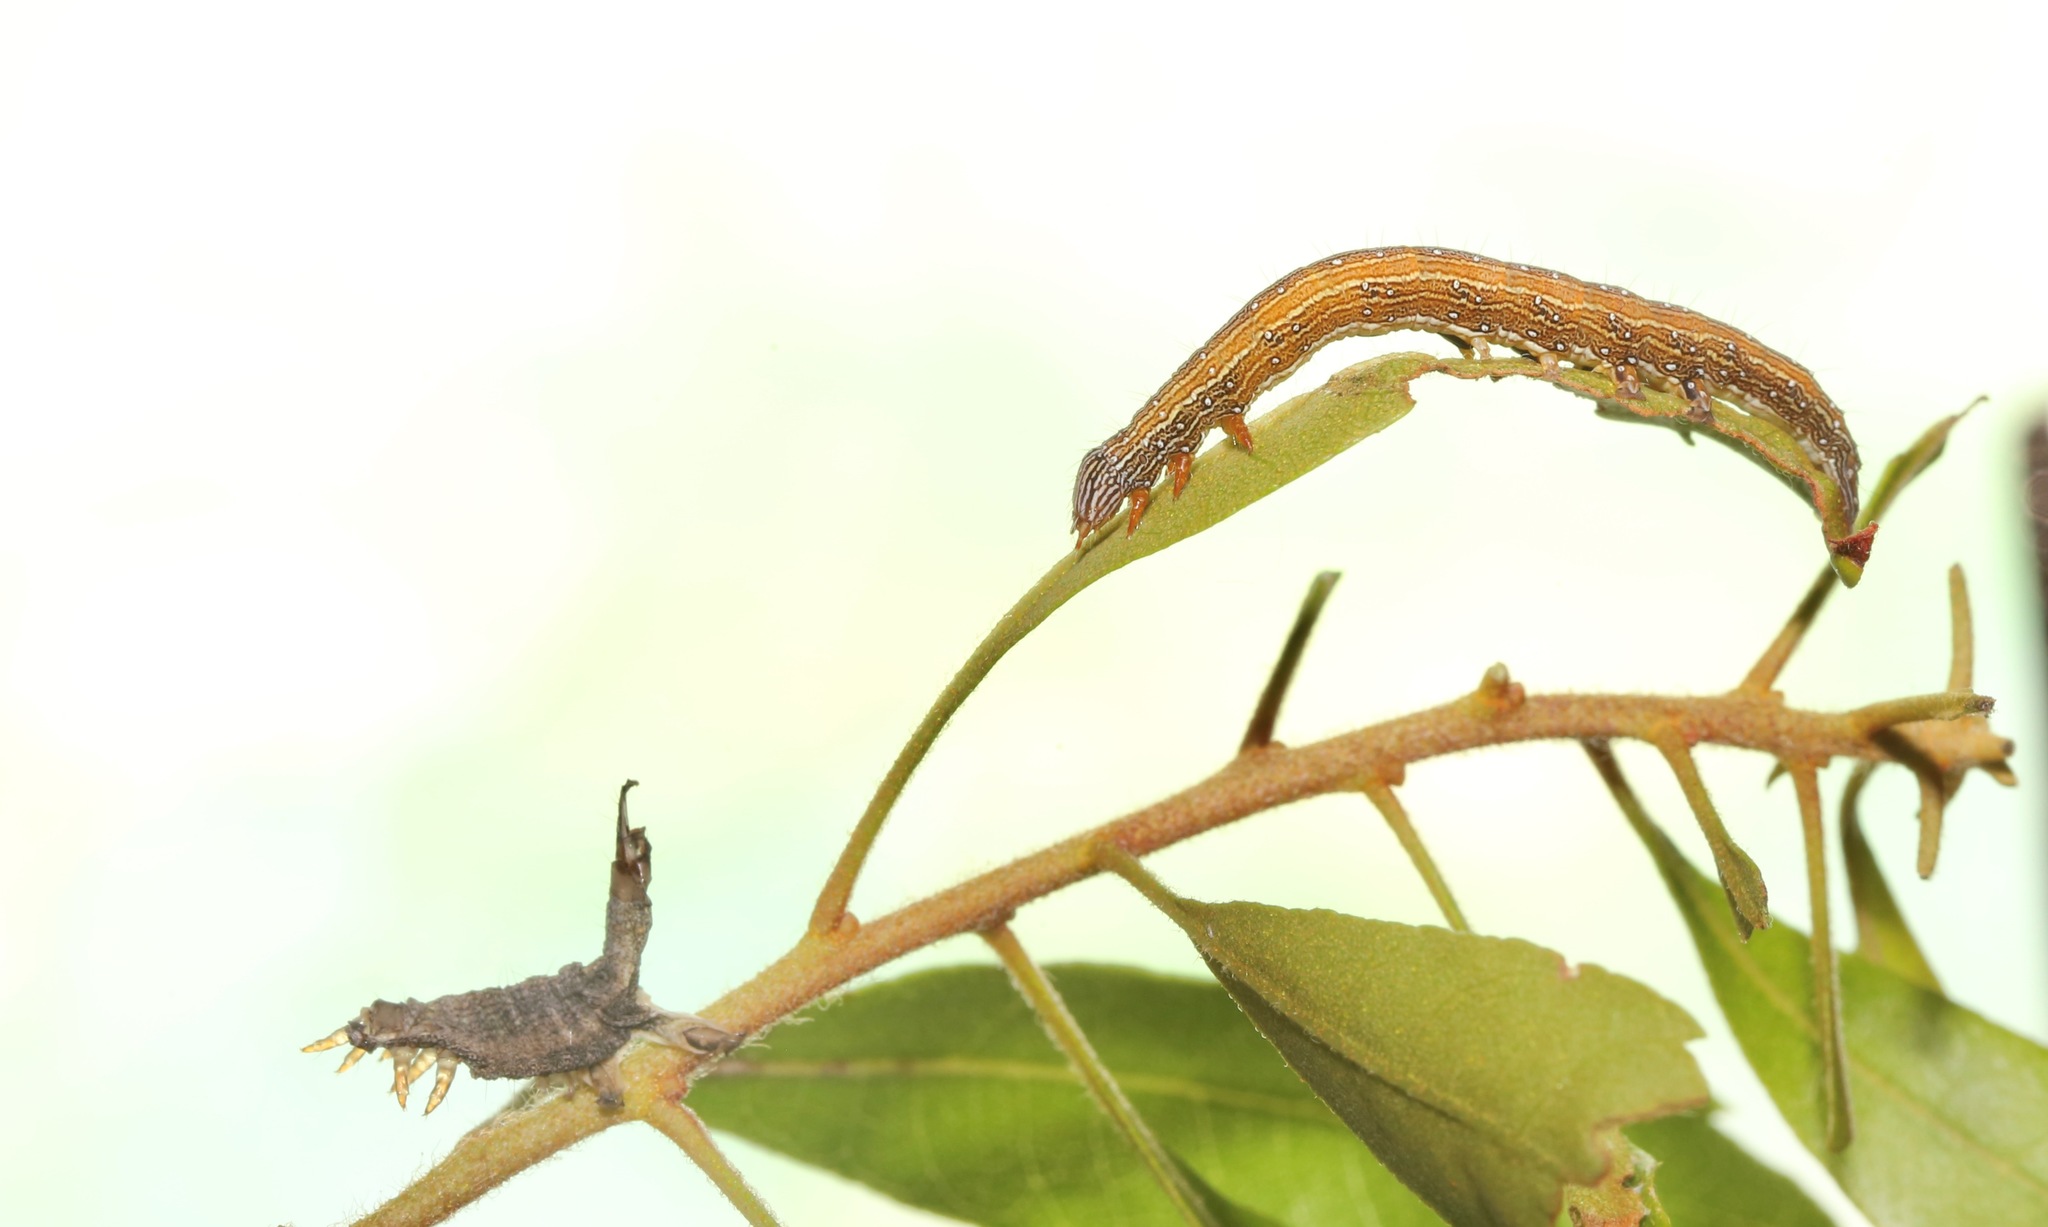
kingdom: Animalia
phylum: Arthropoda
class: Insecta
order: Lepidoptera
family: Erebidae
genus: Catocala
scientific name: Catocala muliercula
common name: The little wife underwing
